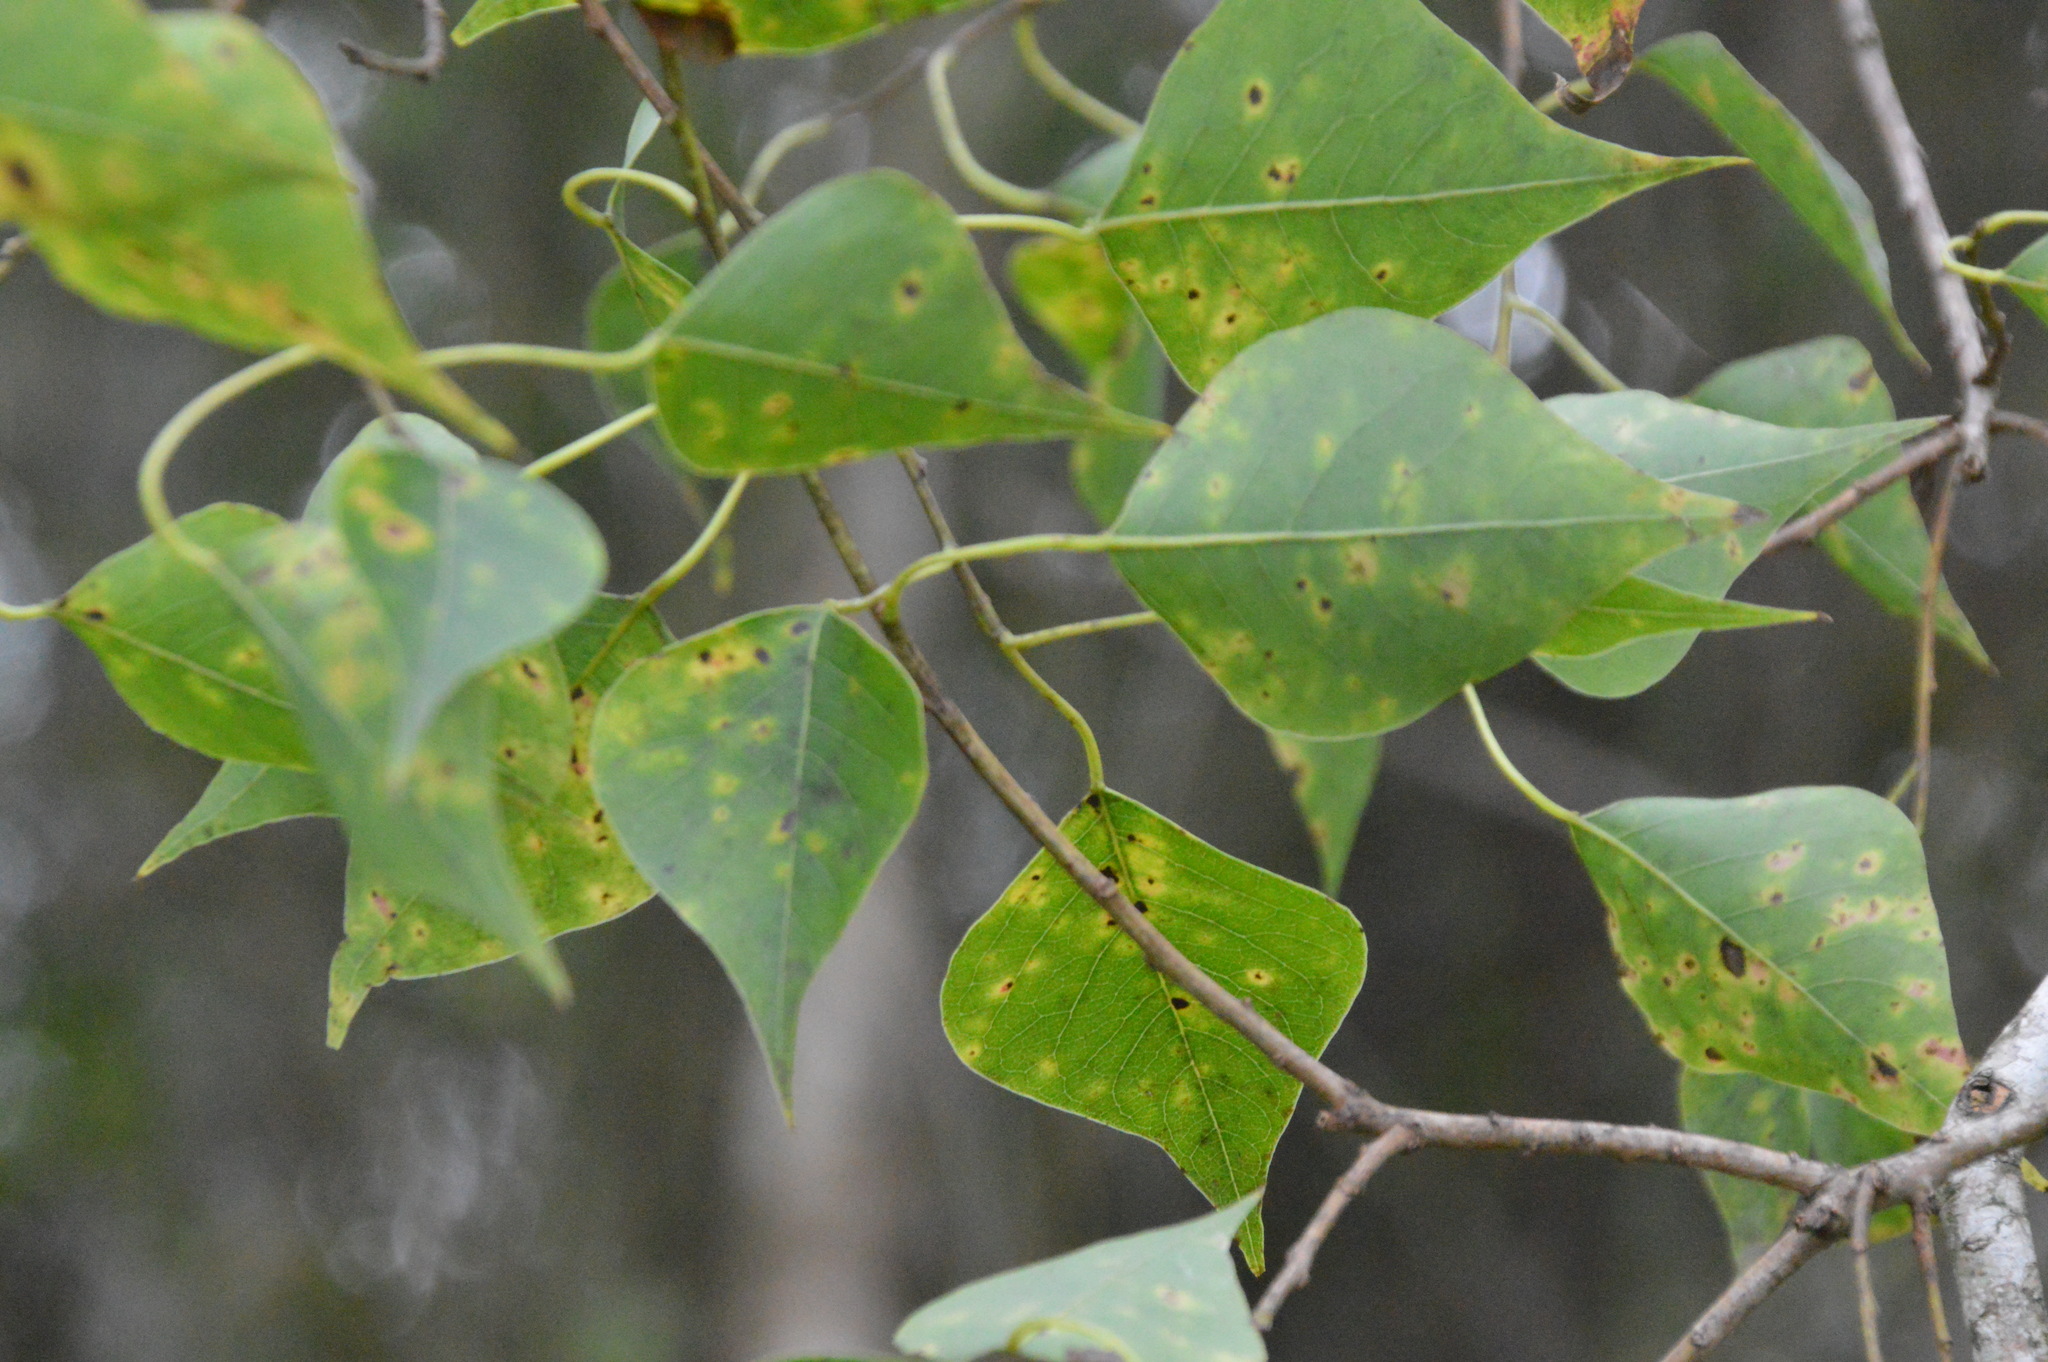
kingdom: Plantae
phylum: Tracheophyta
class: Magnoliopsida
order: Malpighiales
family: Euphorbiaceae
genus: Triadica
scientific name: Triadica sebifera
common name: Chinese tallow
